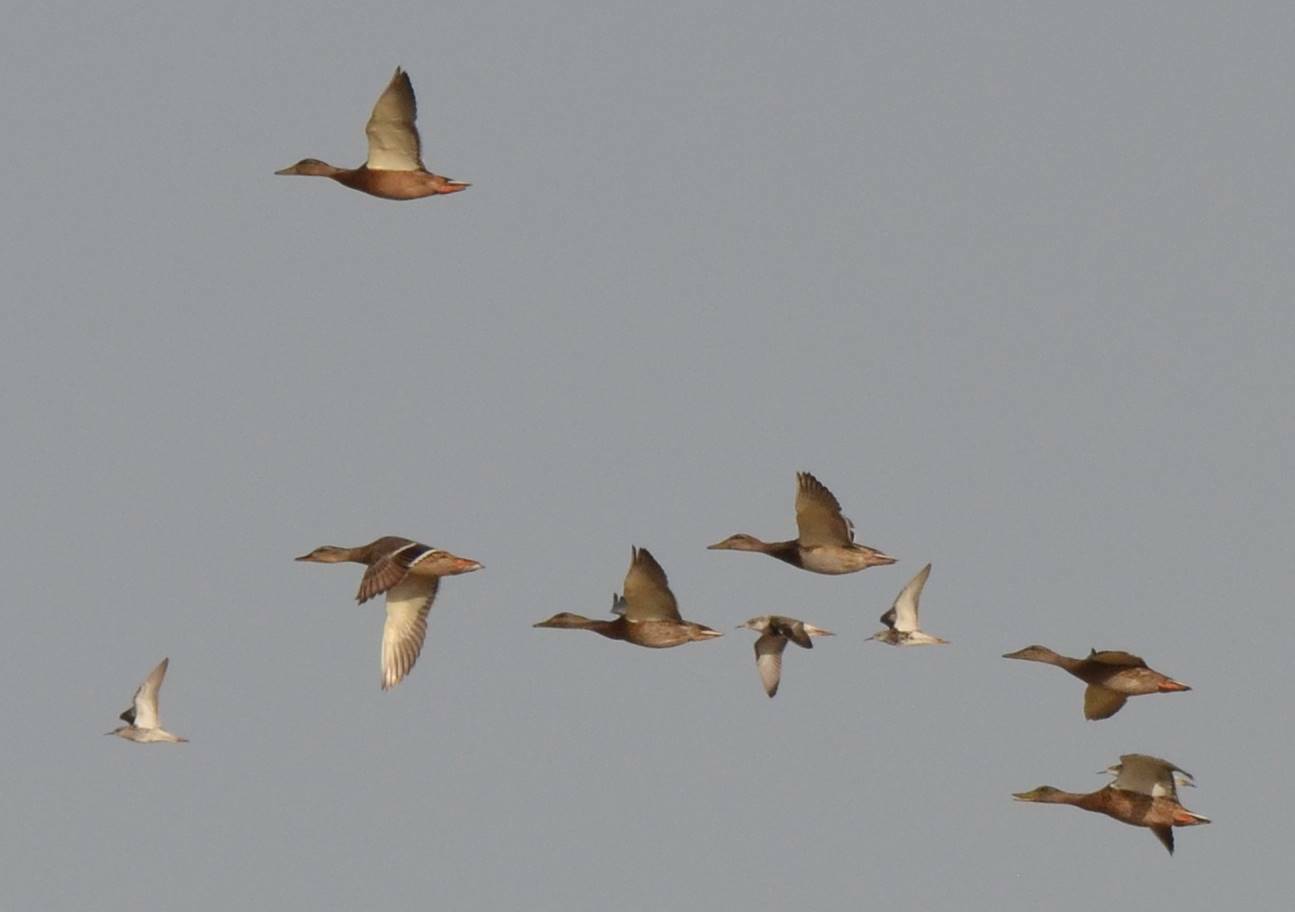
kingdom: Animalia
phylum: Chordata
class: Aves
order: Anseriformes
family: Anatidae
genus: Anas
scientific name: Anas platyrhynchos
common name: Mallard
